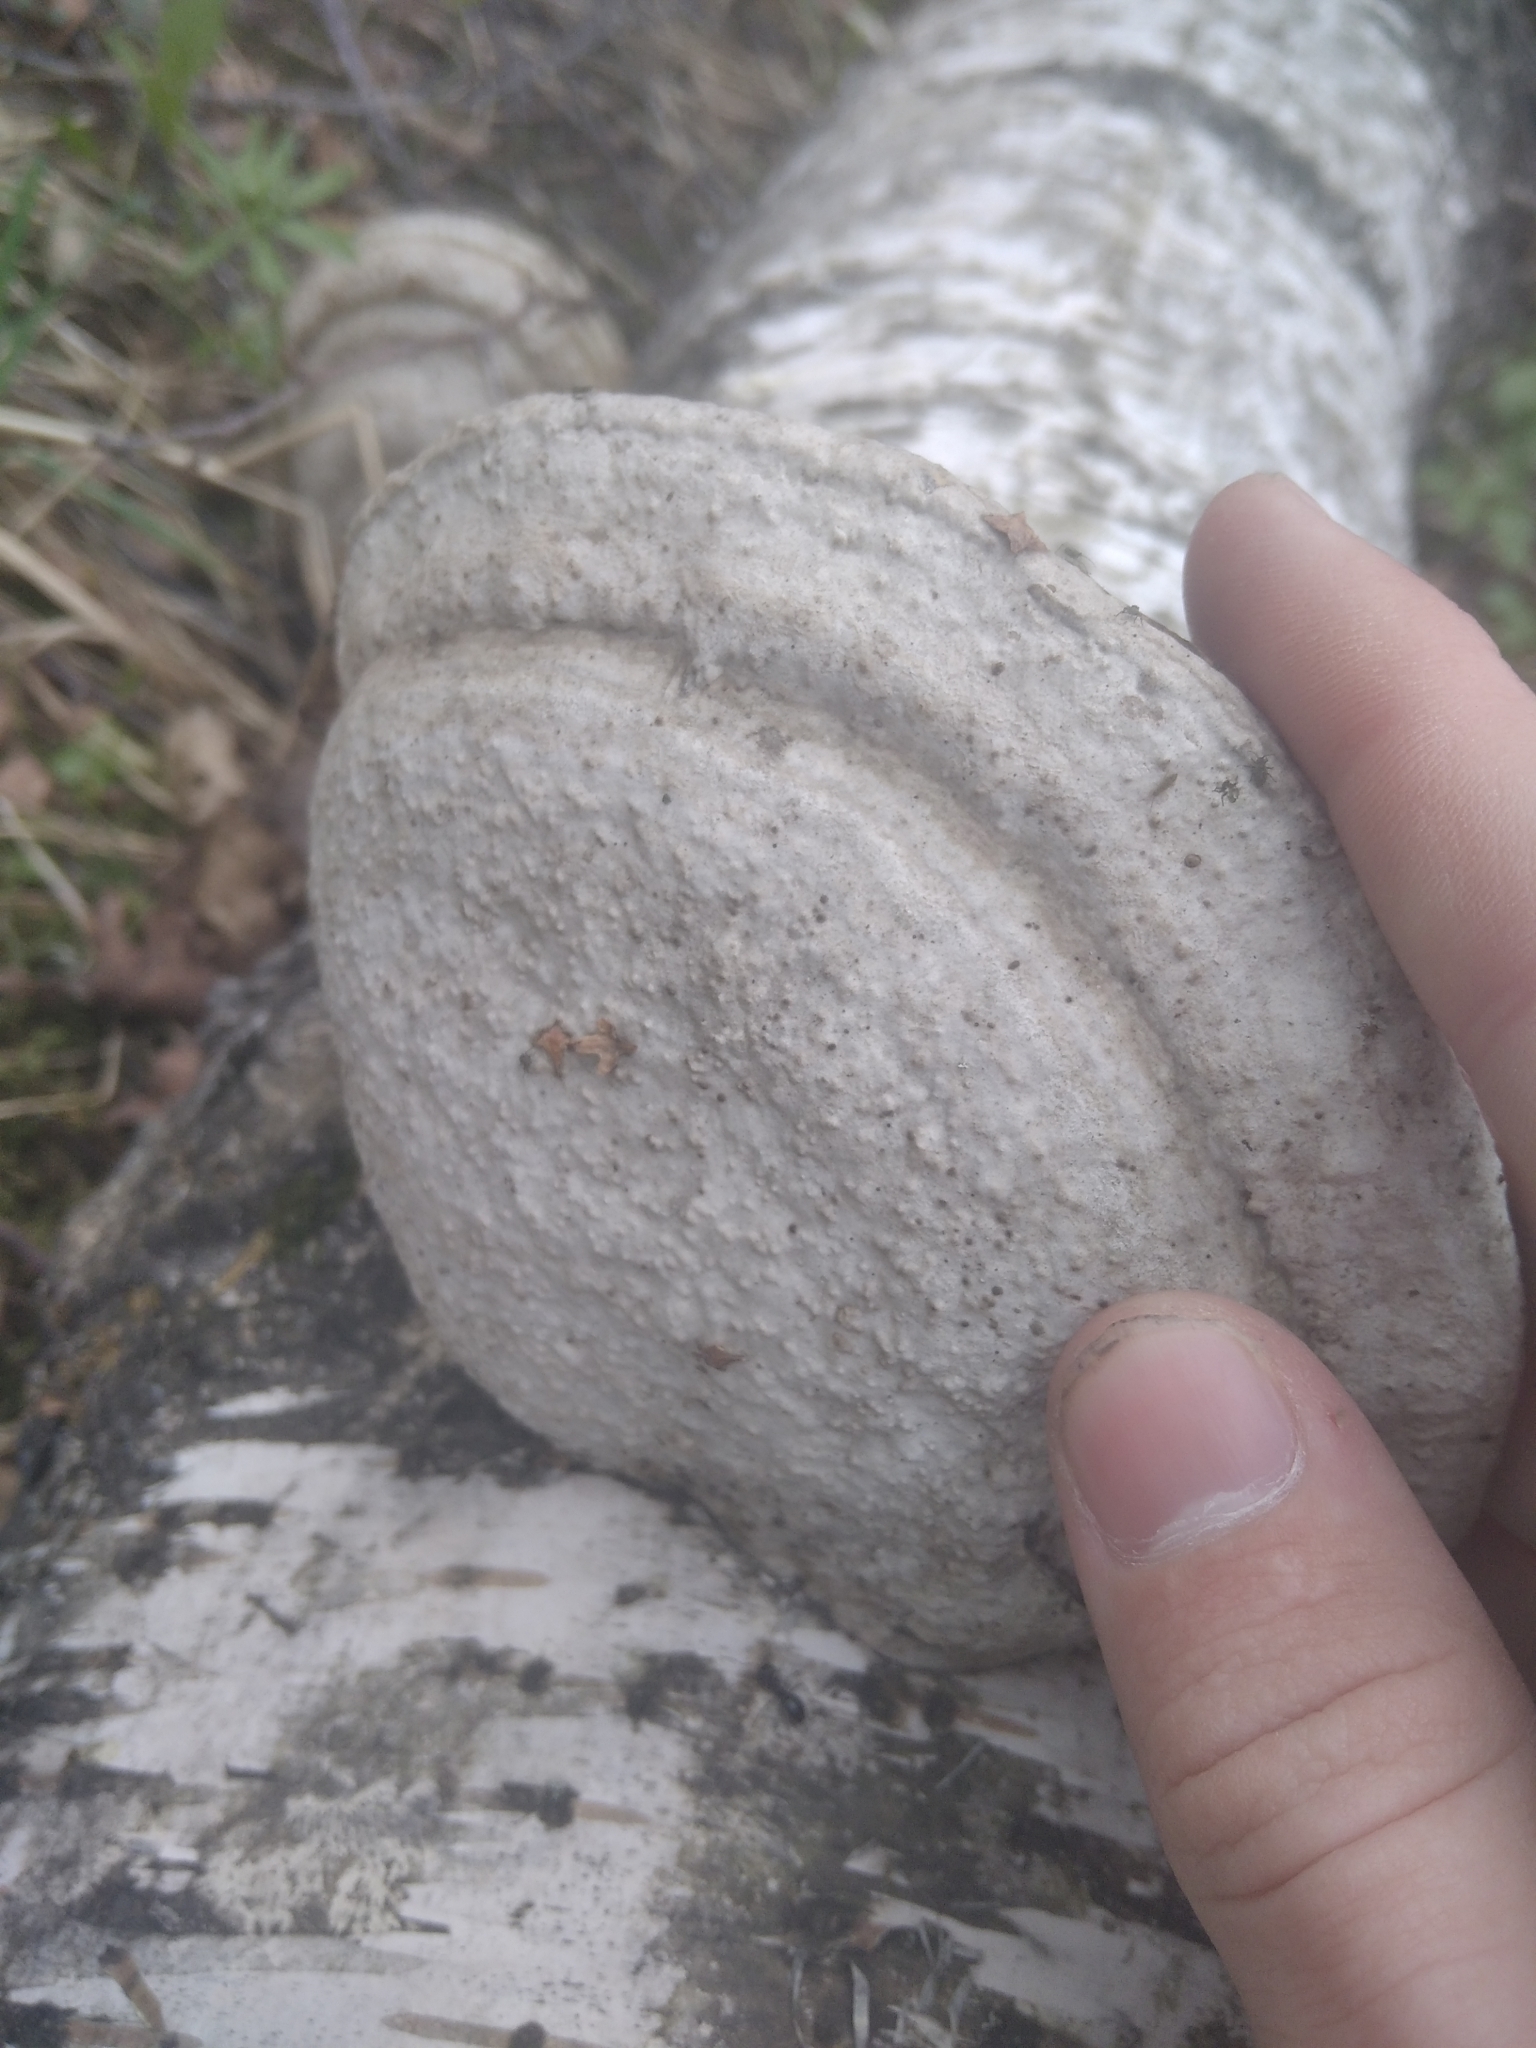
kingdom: Fungi
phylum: Basidiomycota
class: Agaricomycetes
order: Polyporales
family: Polyporaceae
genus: Fomes
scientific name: Fomes fomentarius
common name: Hoof fungus
